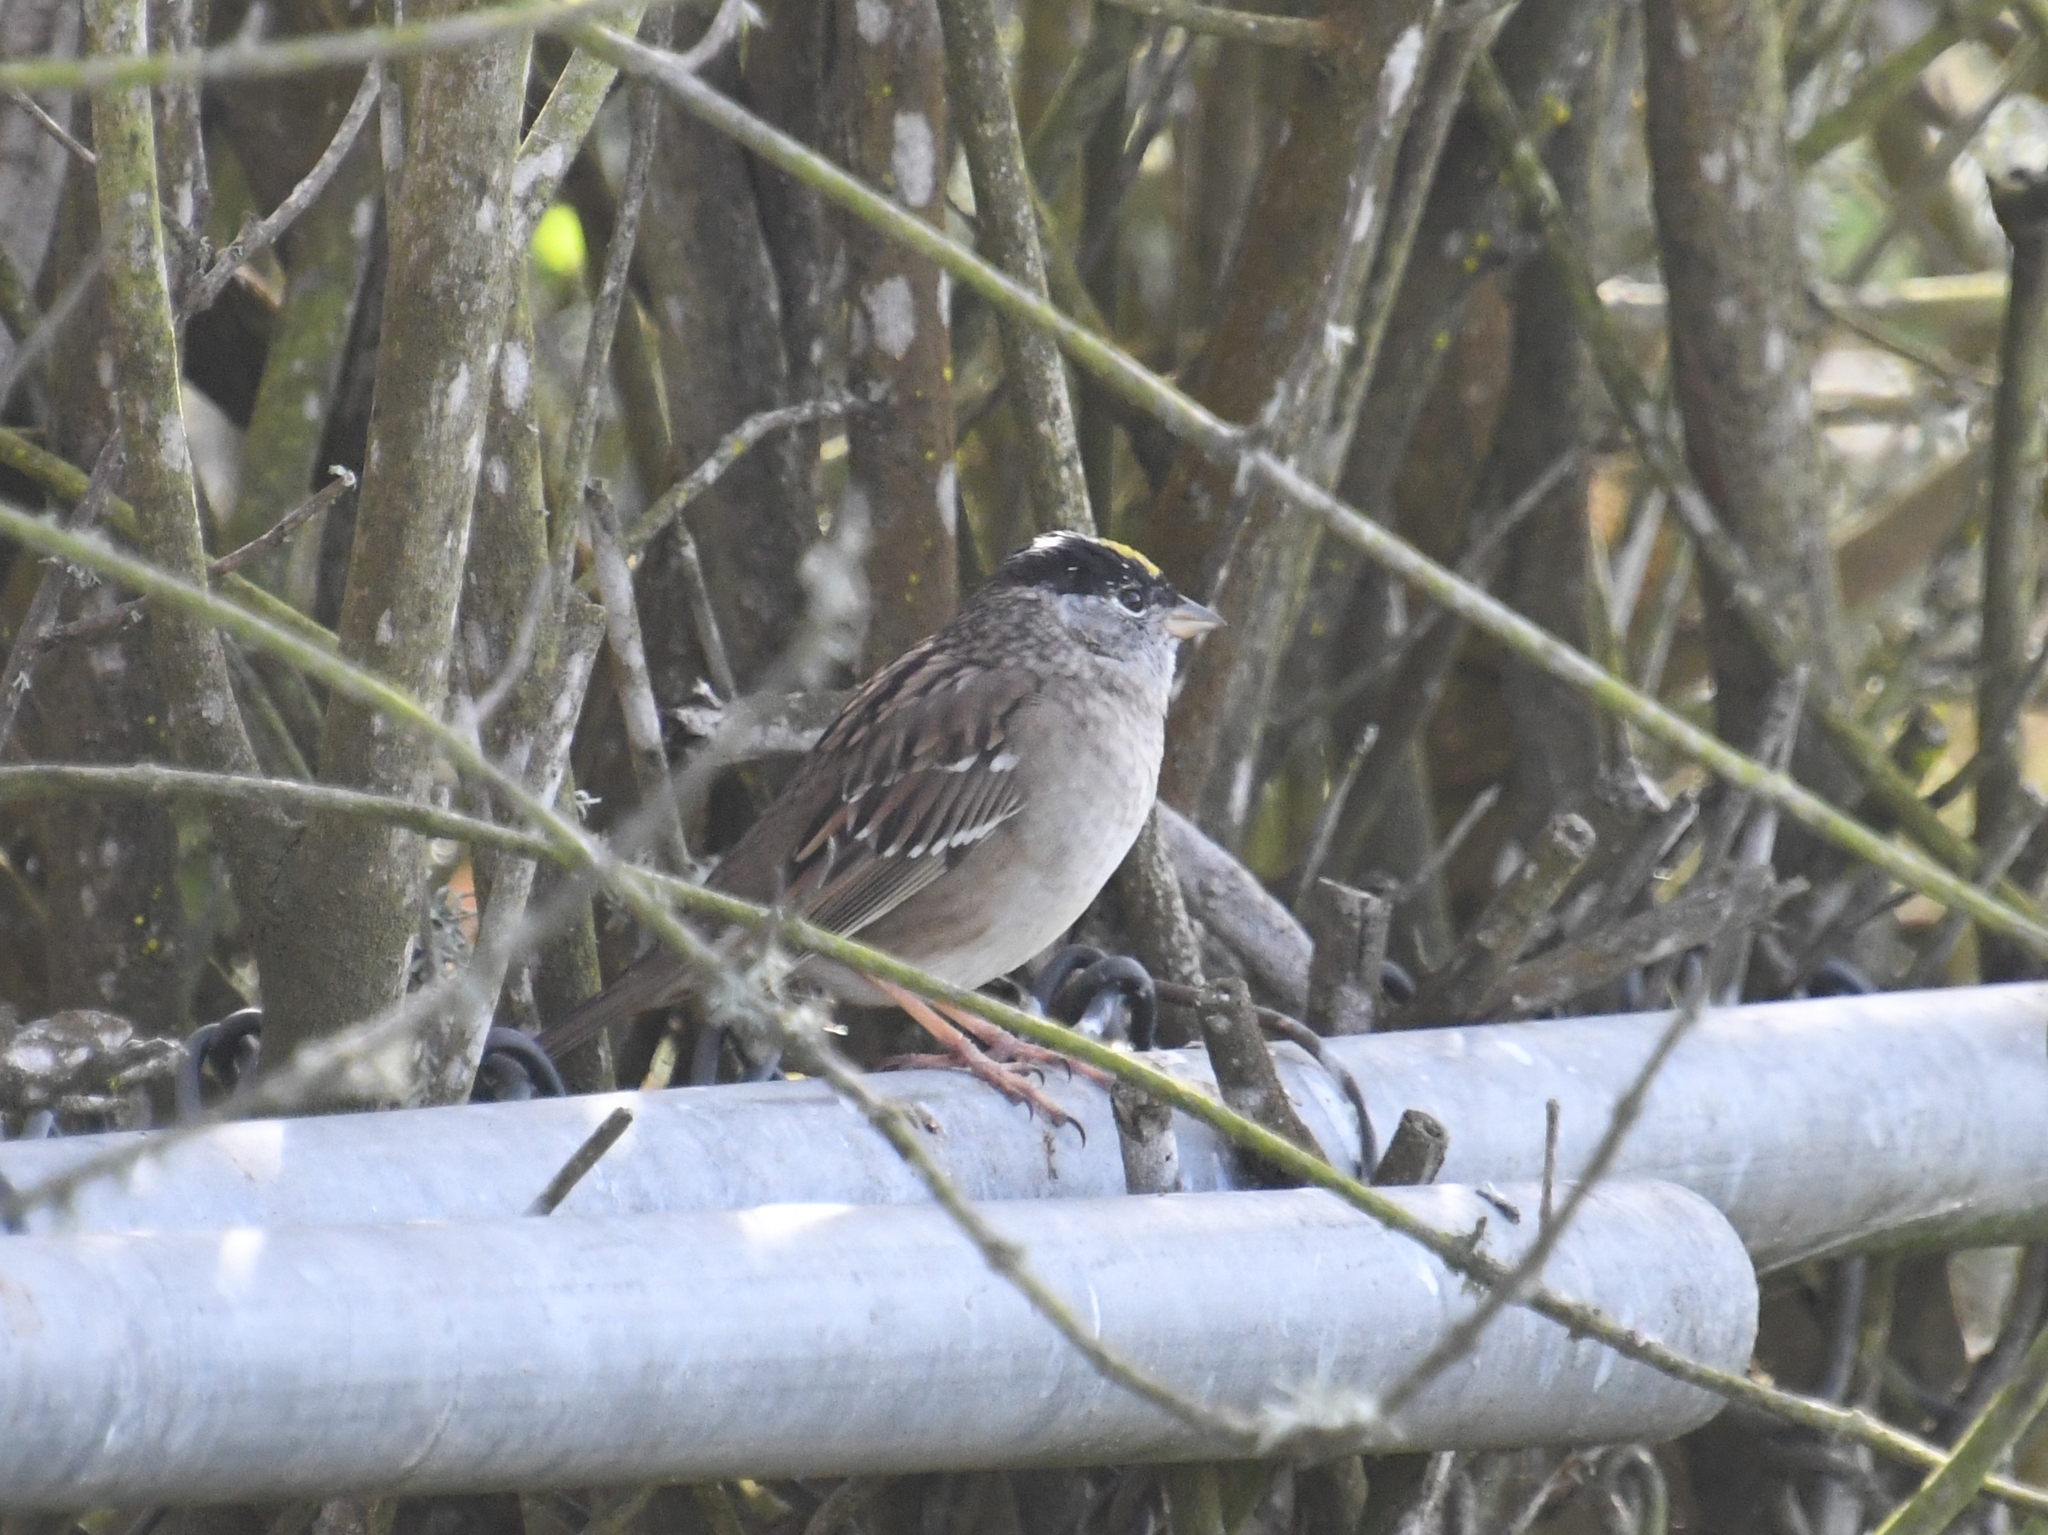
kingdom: Animalia
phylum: Chordata
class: Aves
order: Passeriformes
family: Passerellidae
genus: Zonotrichia
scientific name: Zonotrichia atricapilla
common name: Golden-crowned sparrow
